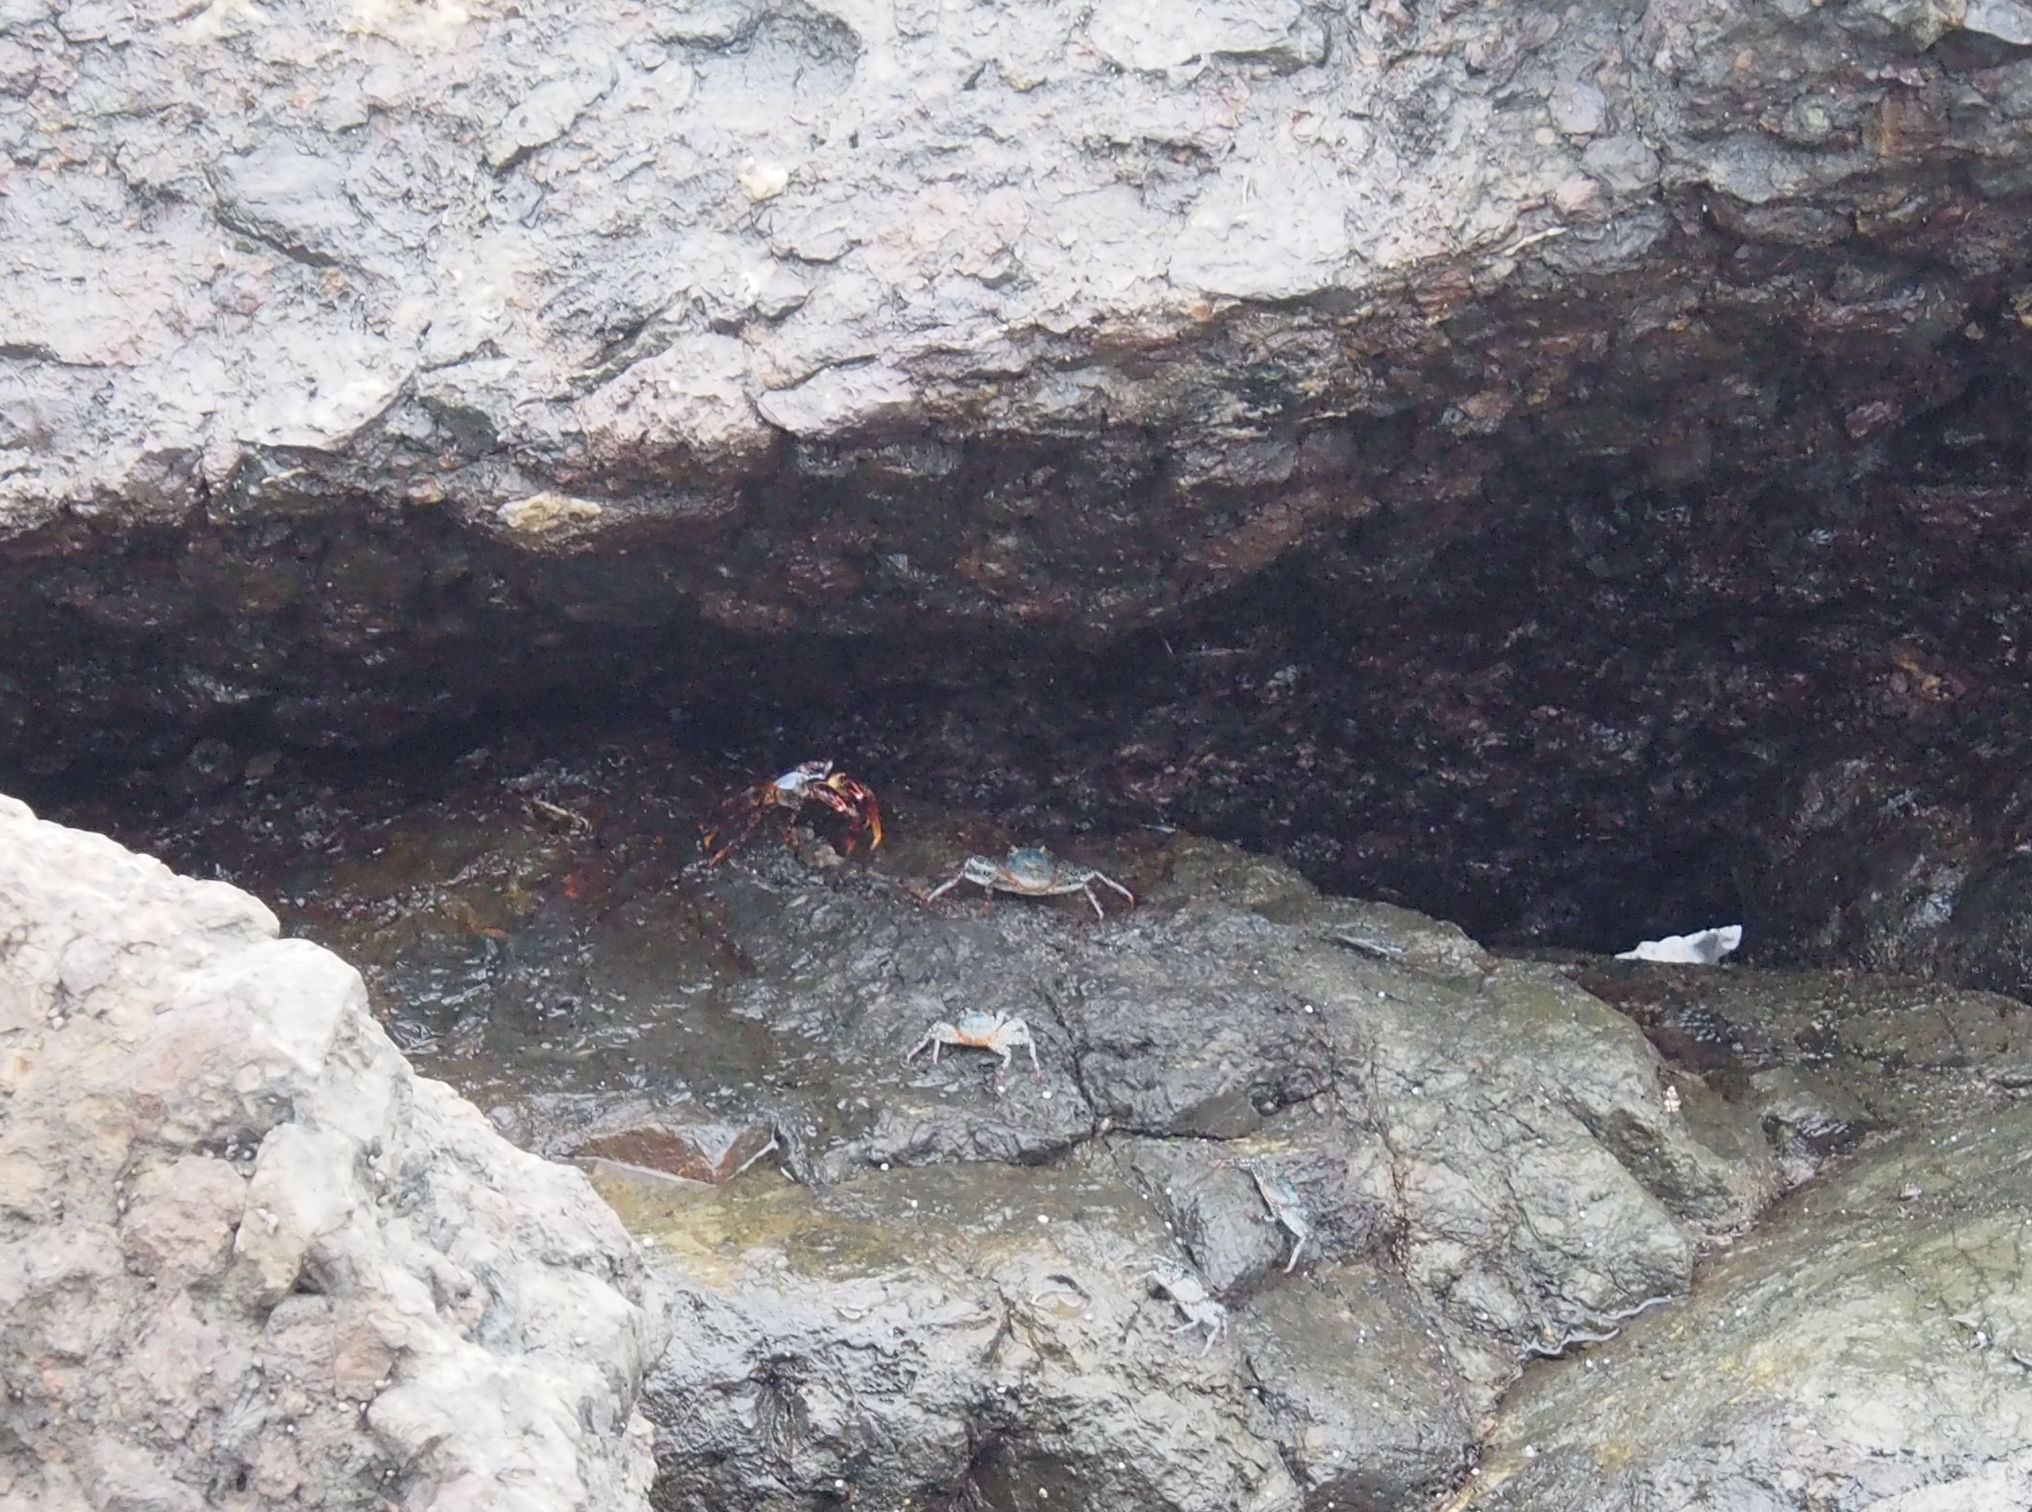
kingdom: Animalia
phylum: Arthropoda
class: Malacostraca
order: Decapoda
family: Grapsidae
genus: Grapsus
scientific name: Grapsus grapsus
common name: Sally lightfoot
